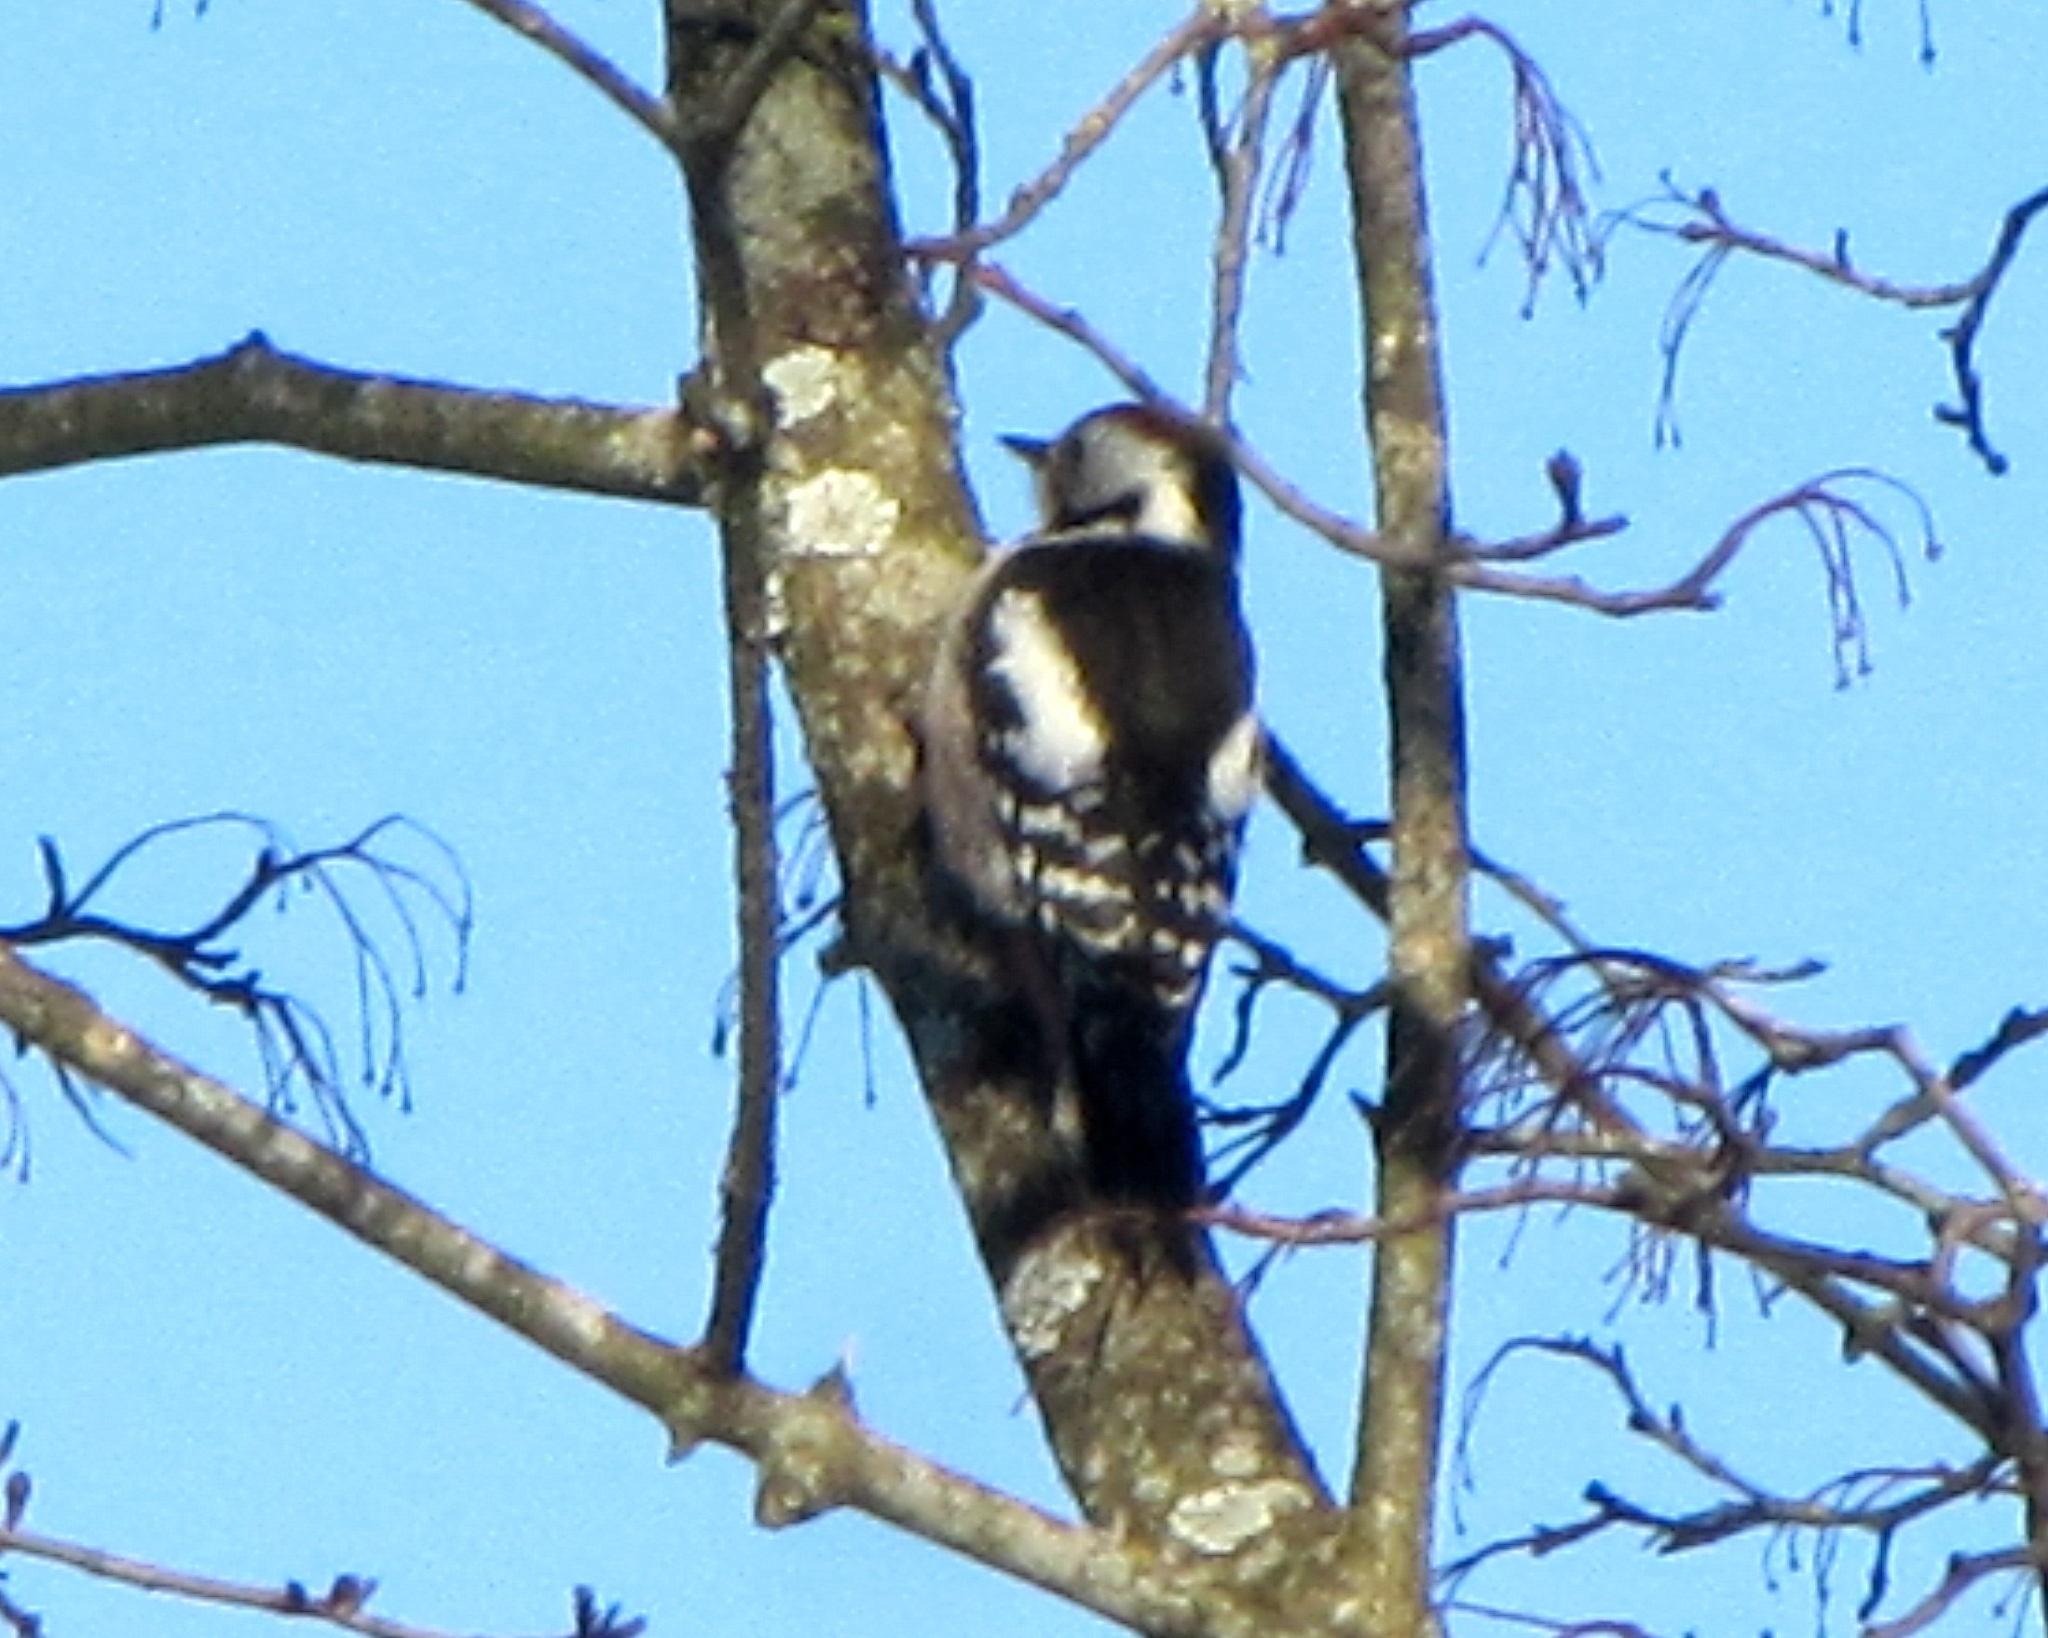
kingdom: Animalia
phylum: Chordata
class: Aves
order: Piciformes
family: Picidae
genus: Dendrocoptes
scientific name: Dendrocoptes medius
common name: Middle spotted woodpecker
